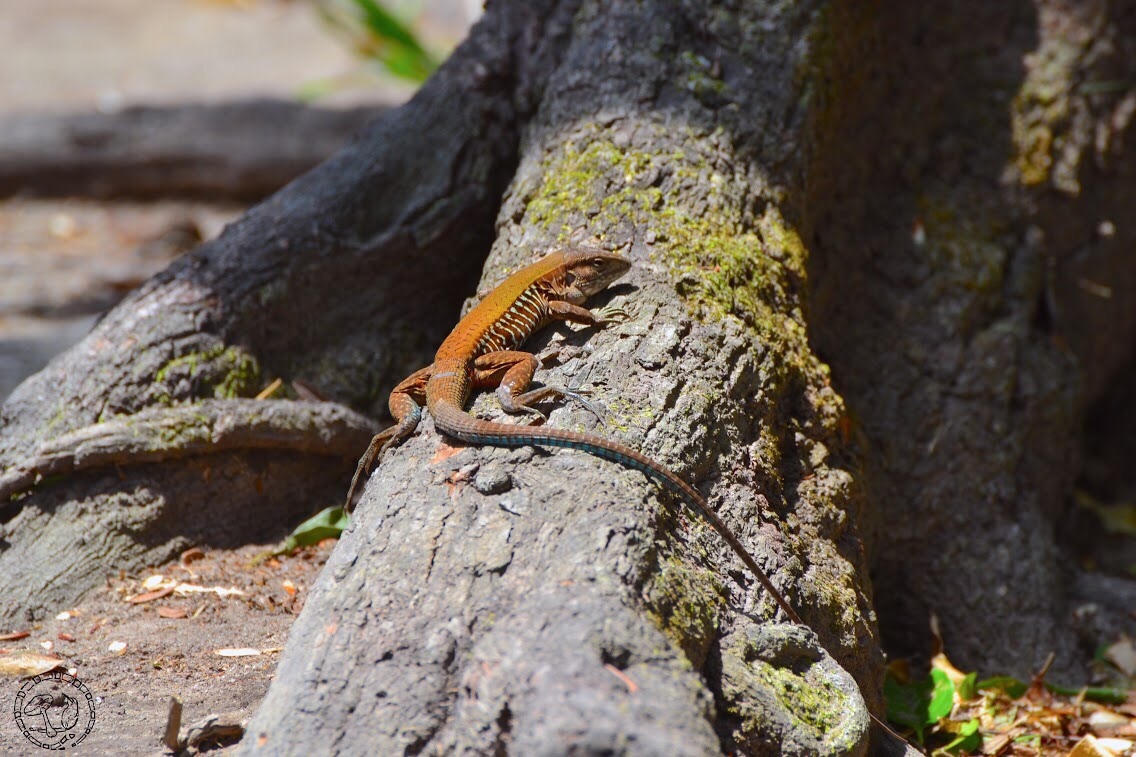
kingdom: Animalia
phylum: Chordata
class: Squamata
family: Teiidae
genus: Holcosus
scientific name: Holcosus undulatus
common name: Rainbow ameiva
